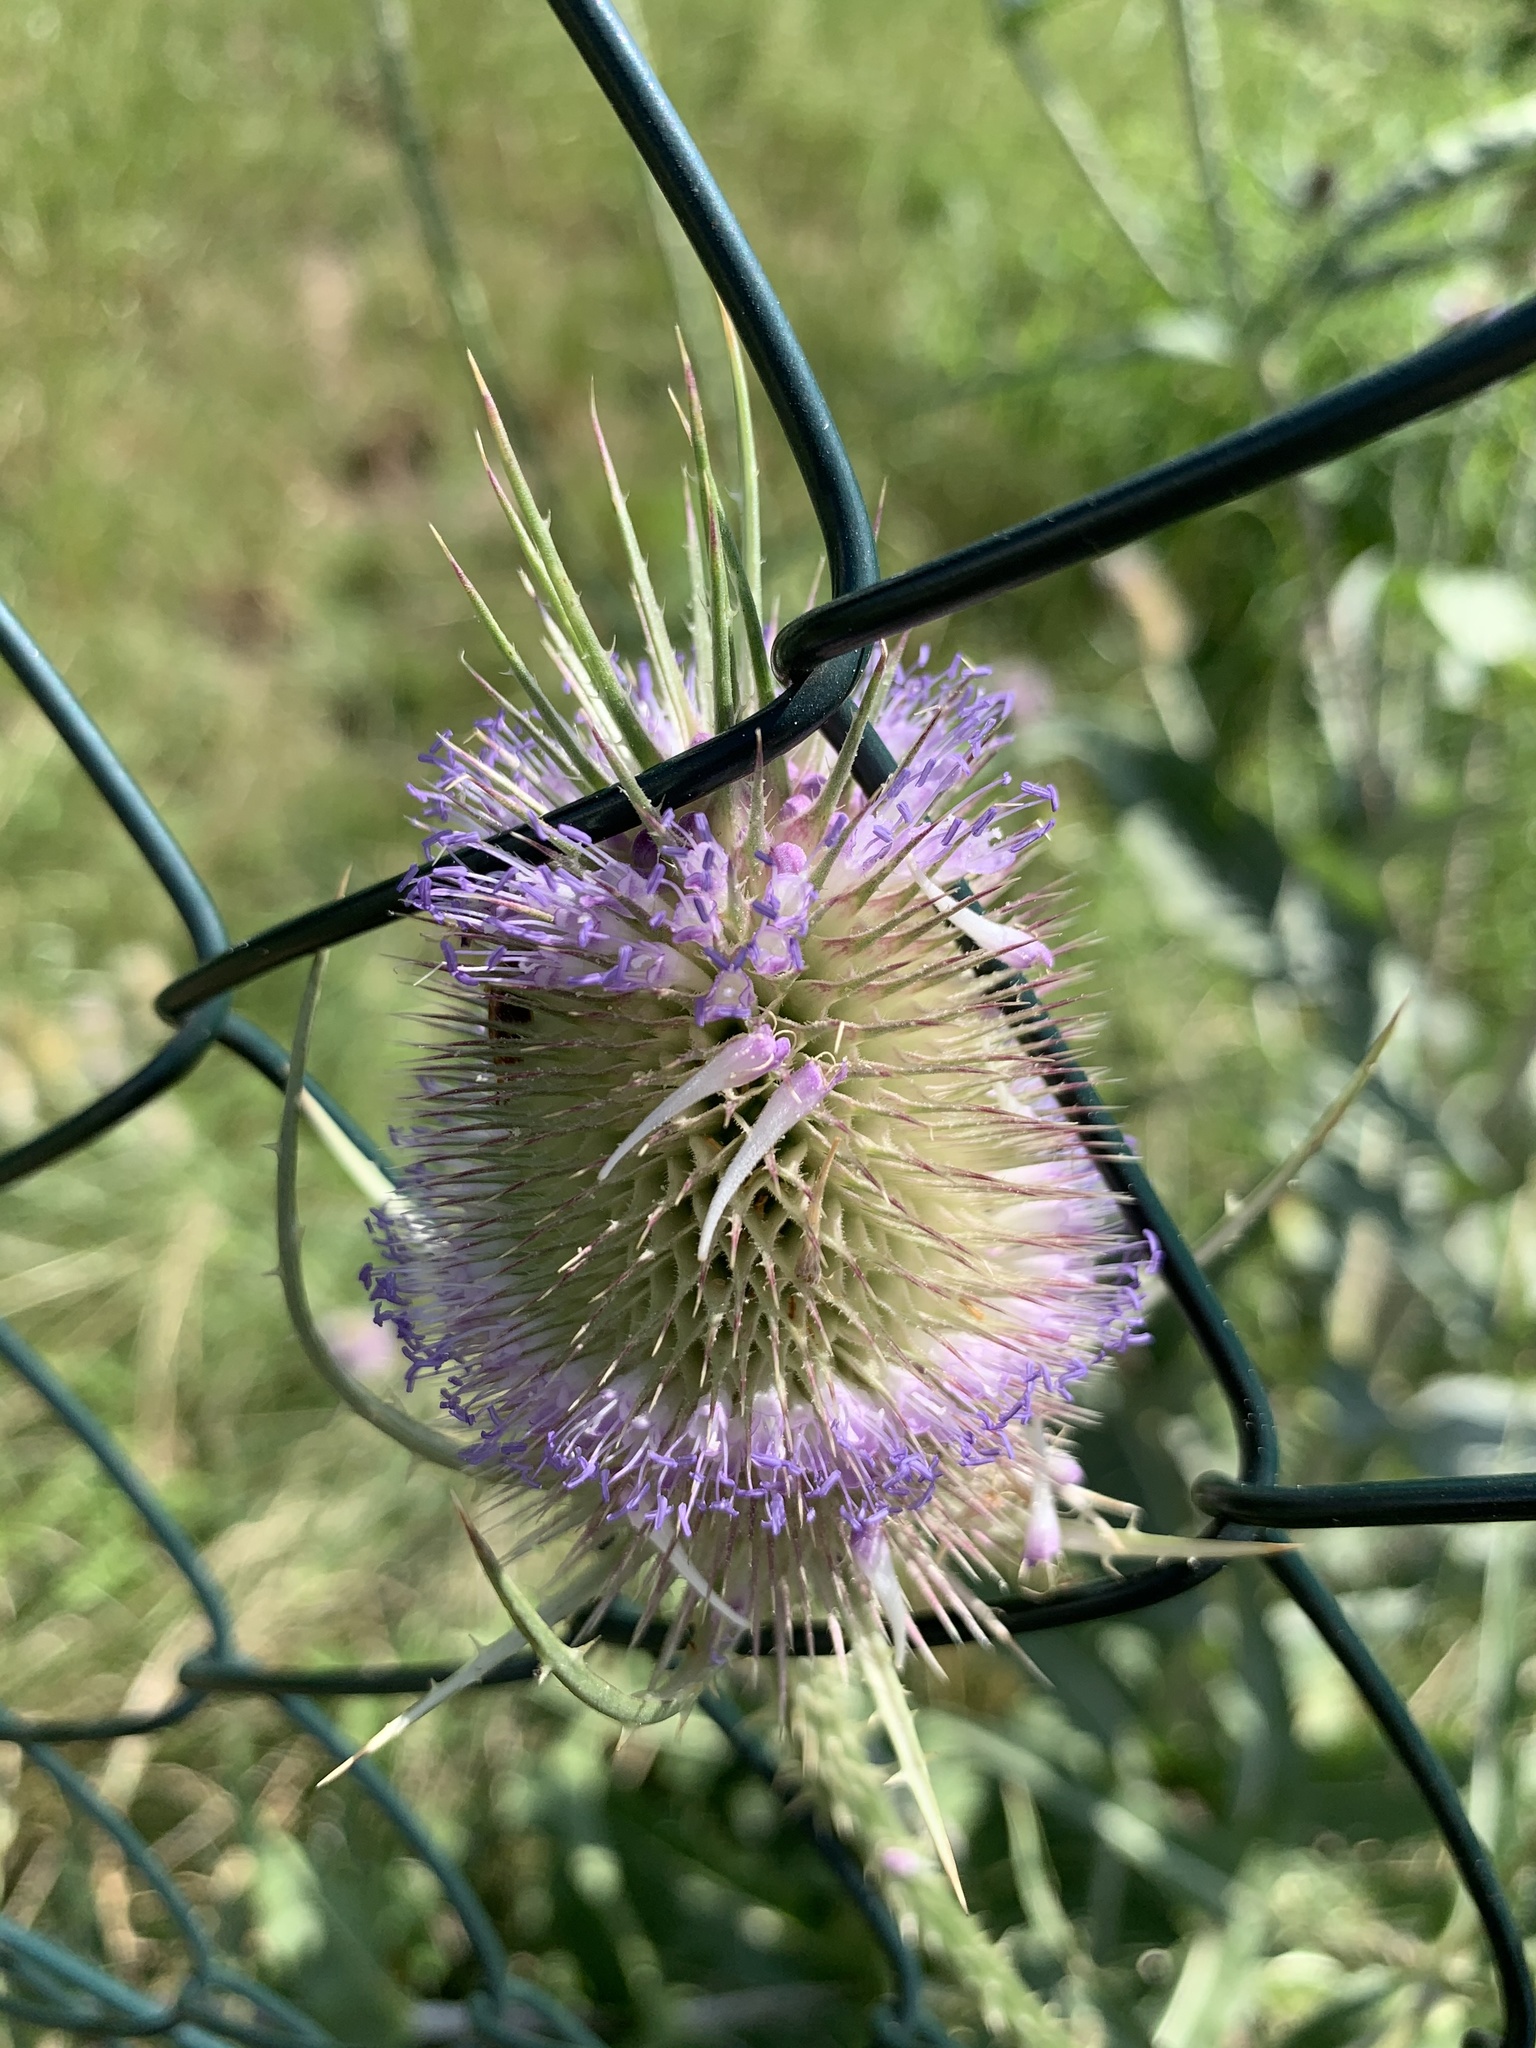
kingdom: Plantae
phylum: Tracheophyta
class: Magnoliopsida
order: Dipsacales
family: Caprifoliaceae
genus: Dipsacus
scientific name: Dipsacus fullonum
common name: Teasel
